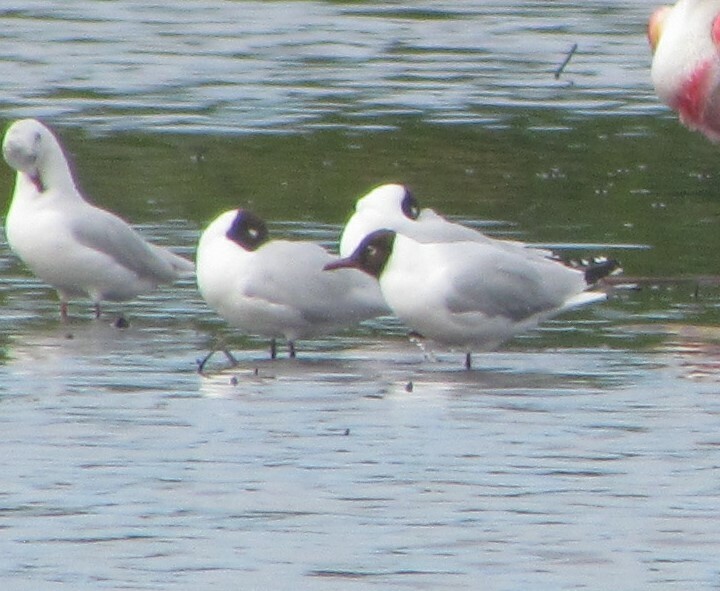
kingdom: Animalia
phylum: Chordata
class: Aves
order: Charadriiformes
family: Laridae
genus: Chroicocephalus
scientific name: Chroicocephalus maculipennis
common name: Brown-hooded gull
